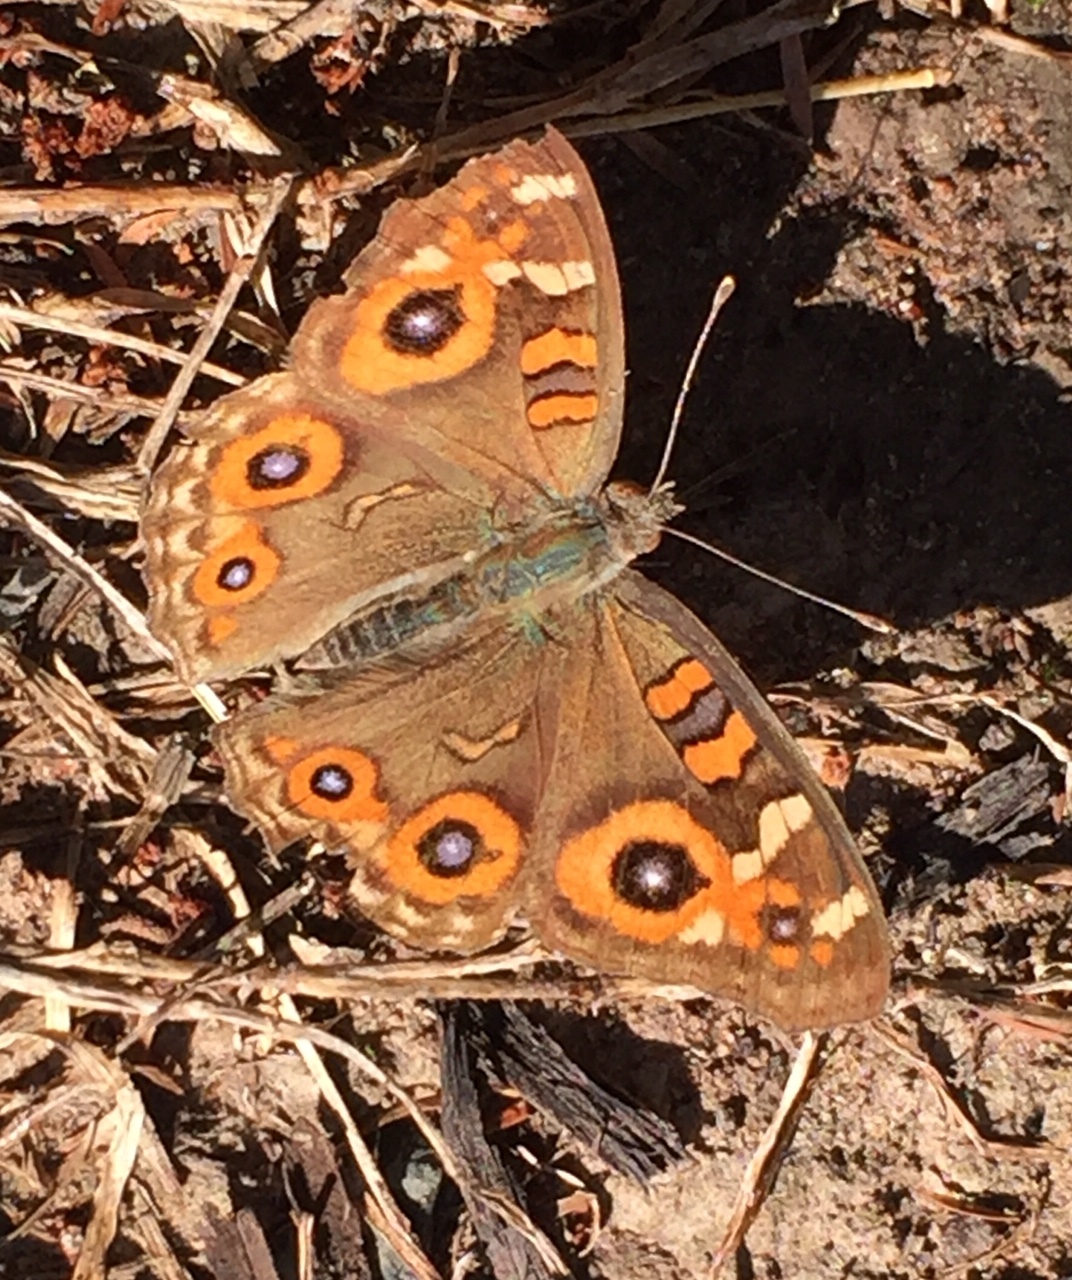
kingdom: Animalia
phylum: Arthropoda
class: Insecta
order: Lepidoptera
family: Nymphalidae
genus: Junonia
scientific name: Junonia villida
